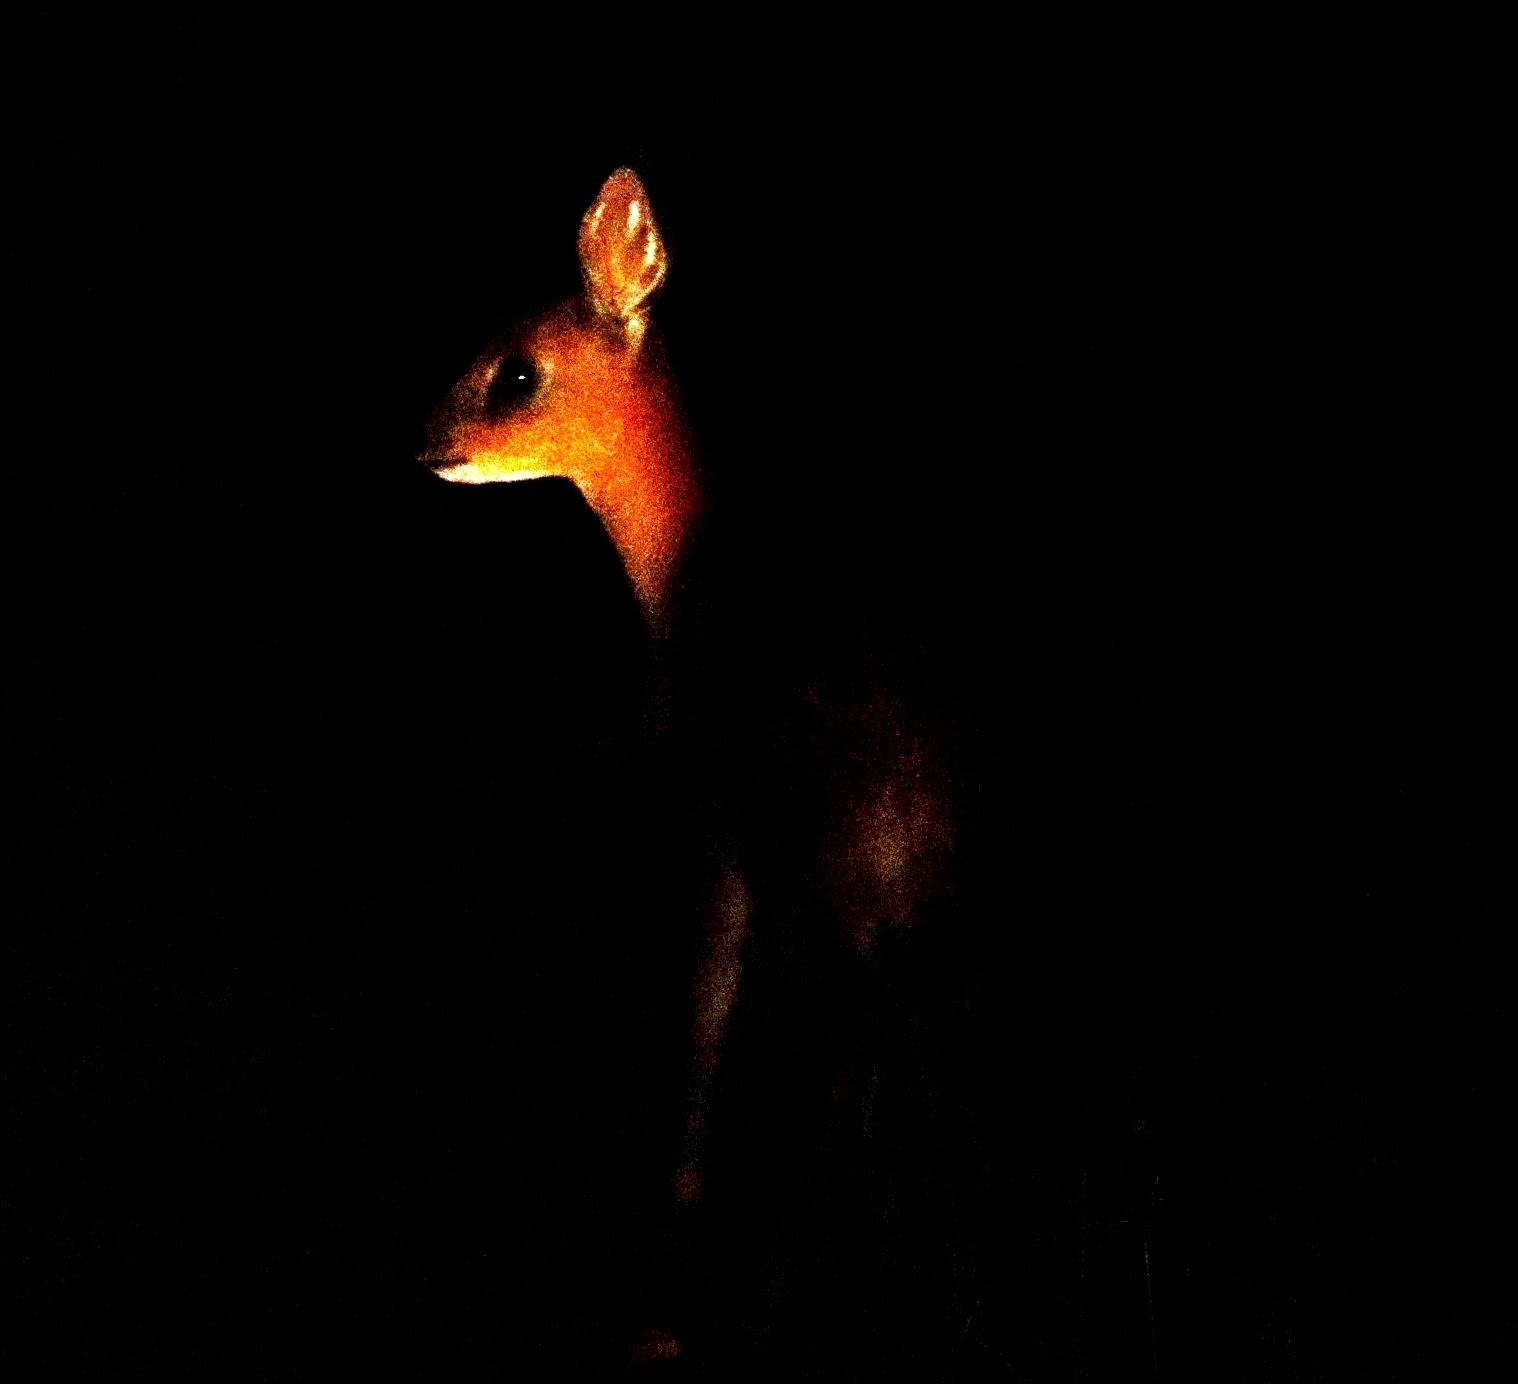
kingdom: Animalia
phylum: Chordata
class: Mammalia
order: Artiodactyla
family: Bovidae
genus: Raphicerus
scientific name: Raphicerus melanotis
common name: Cape grysbok
